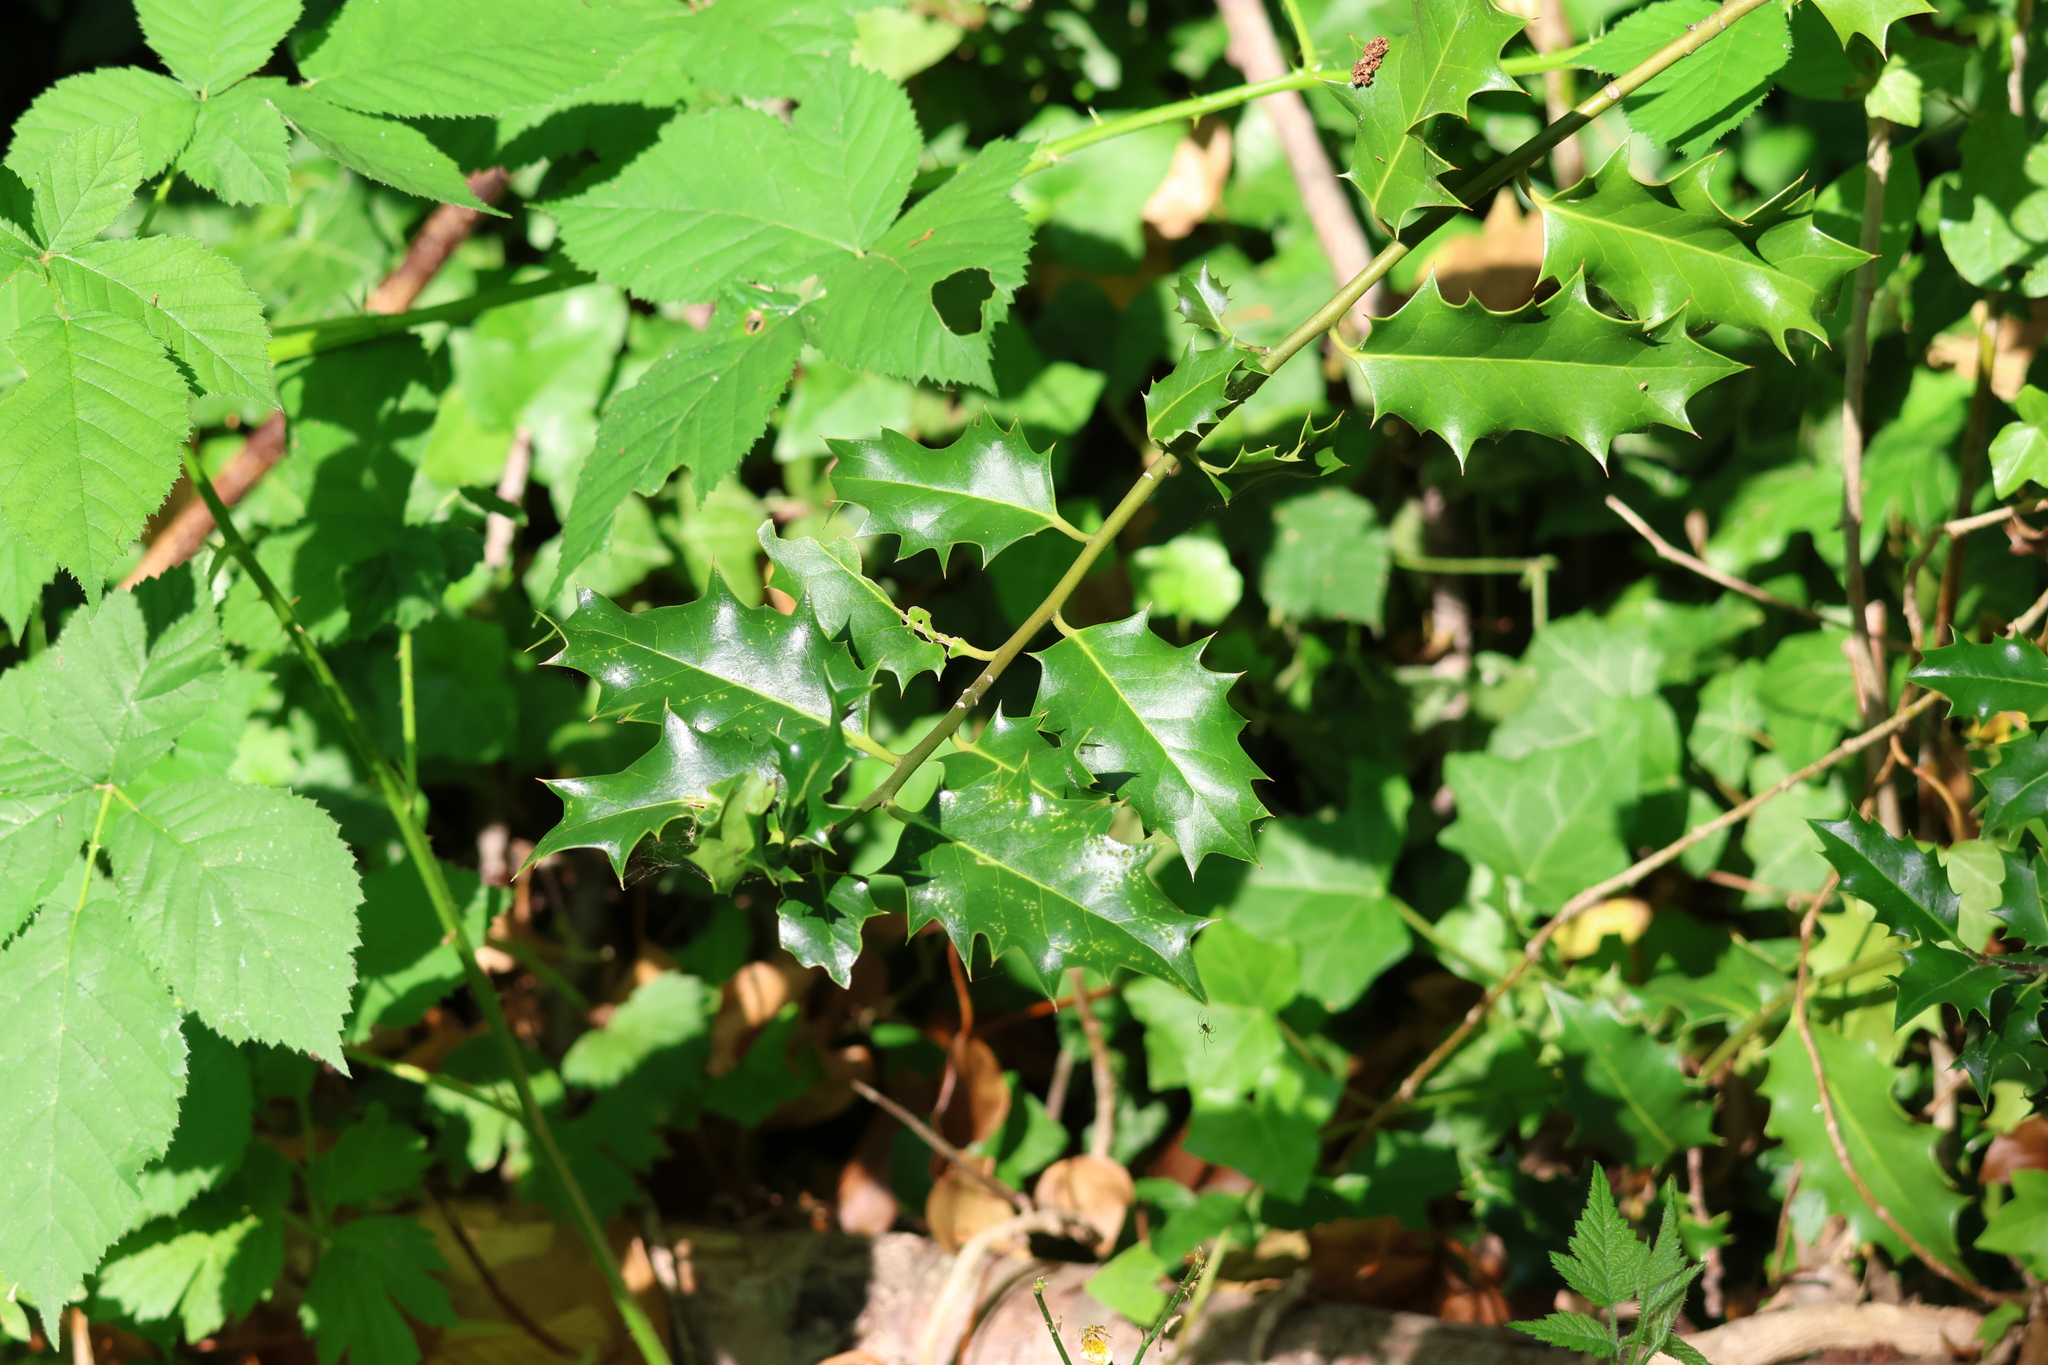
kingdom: Plantae
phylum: Tracheophyta
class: Magnoliopsida
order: Aquifoliales
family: Aquifoliaceae
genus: Ilex
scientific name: Ilex aquifolium
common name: English holly
